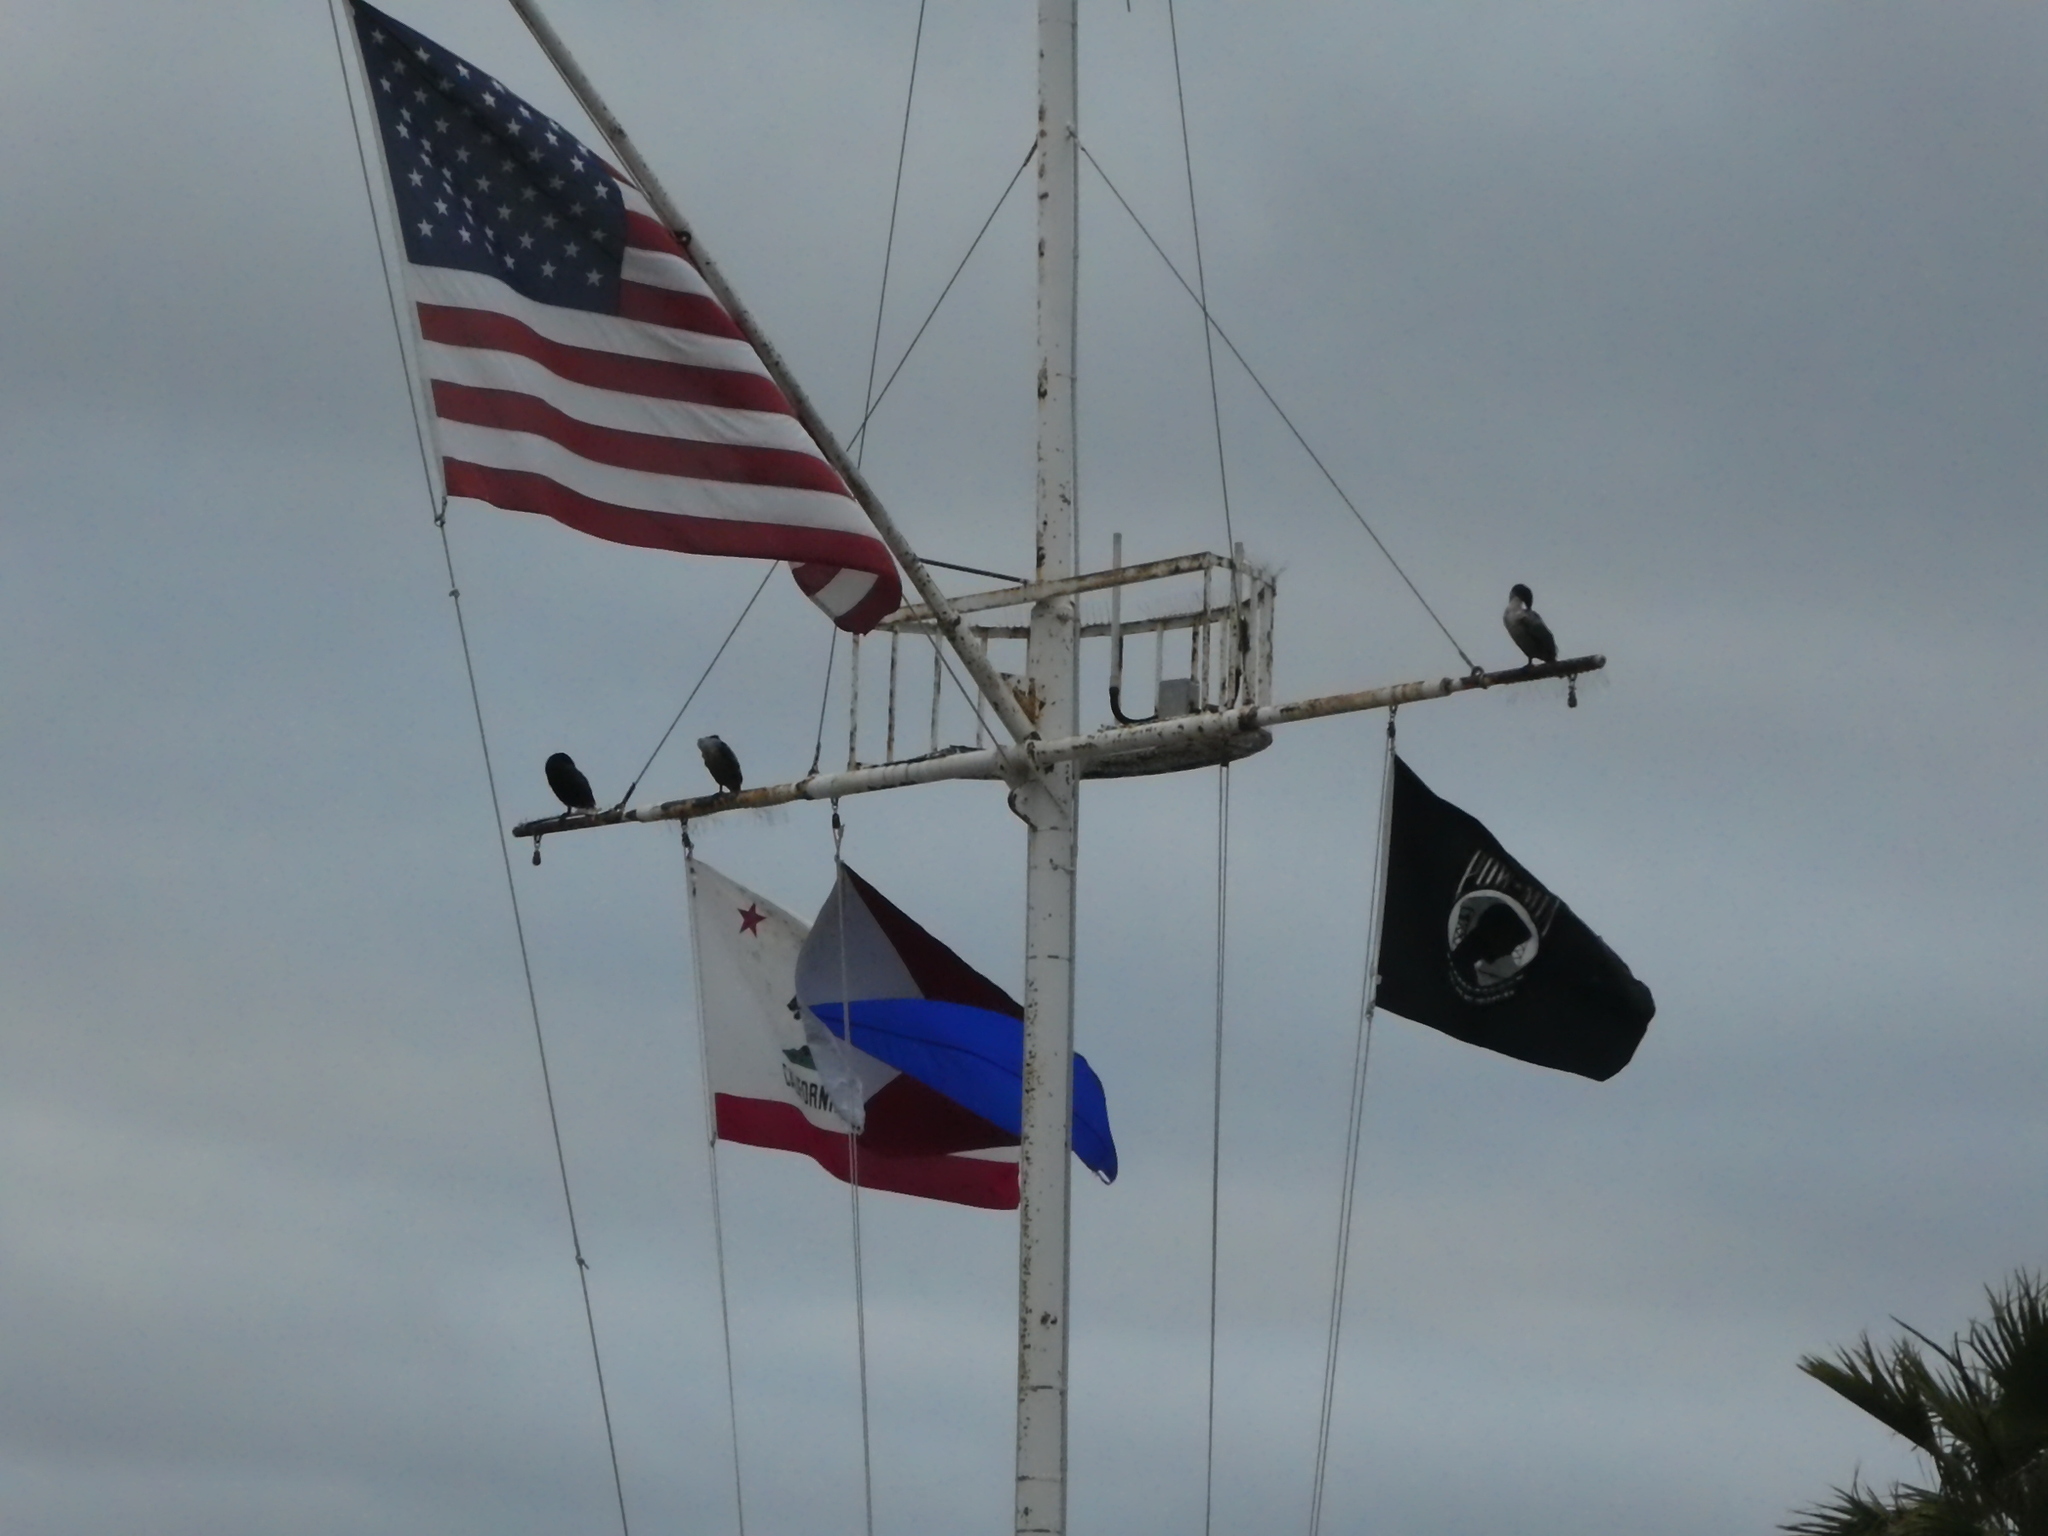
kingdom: Animalia
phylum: Chordata
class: Aves
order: Suliformes
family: Phalacrocoracidae
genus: Phalacrocorax
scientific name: Phalacrocorax auritus
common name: Double-crested cormorant
